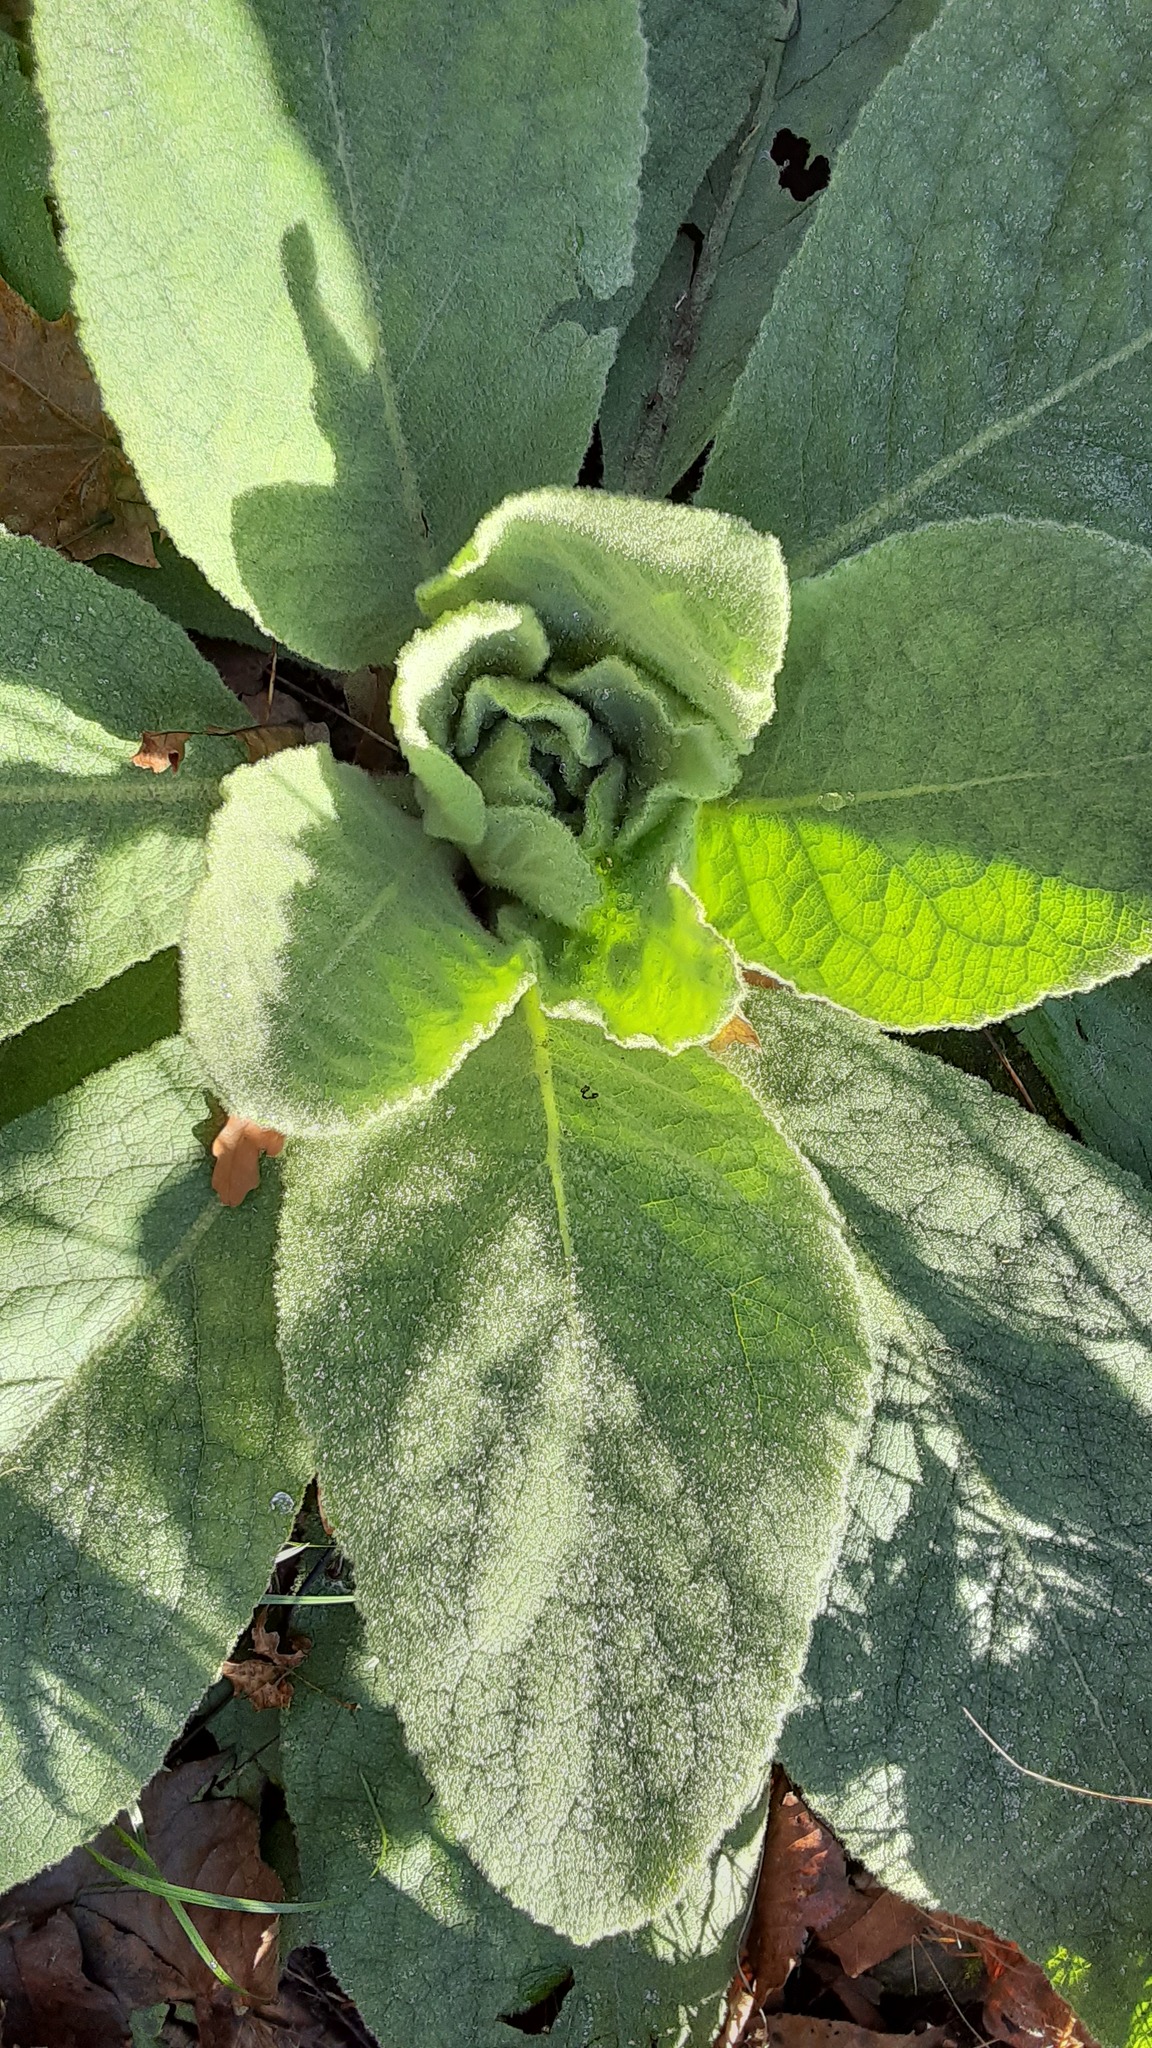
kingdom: Plantae
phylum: Tracheophyta
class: Magnoliopsida
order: Lamiales
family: Scrophulariaceae
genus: Verbascum
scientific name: Verbascum thapsus
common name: Common mullein
